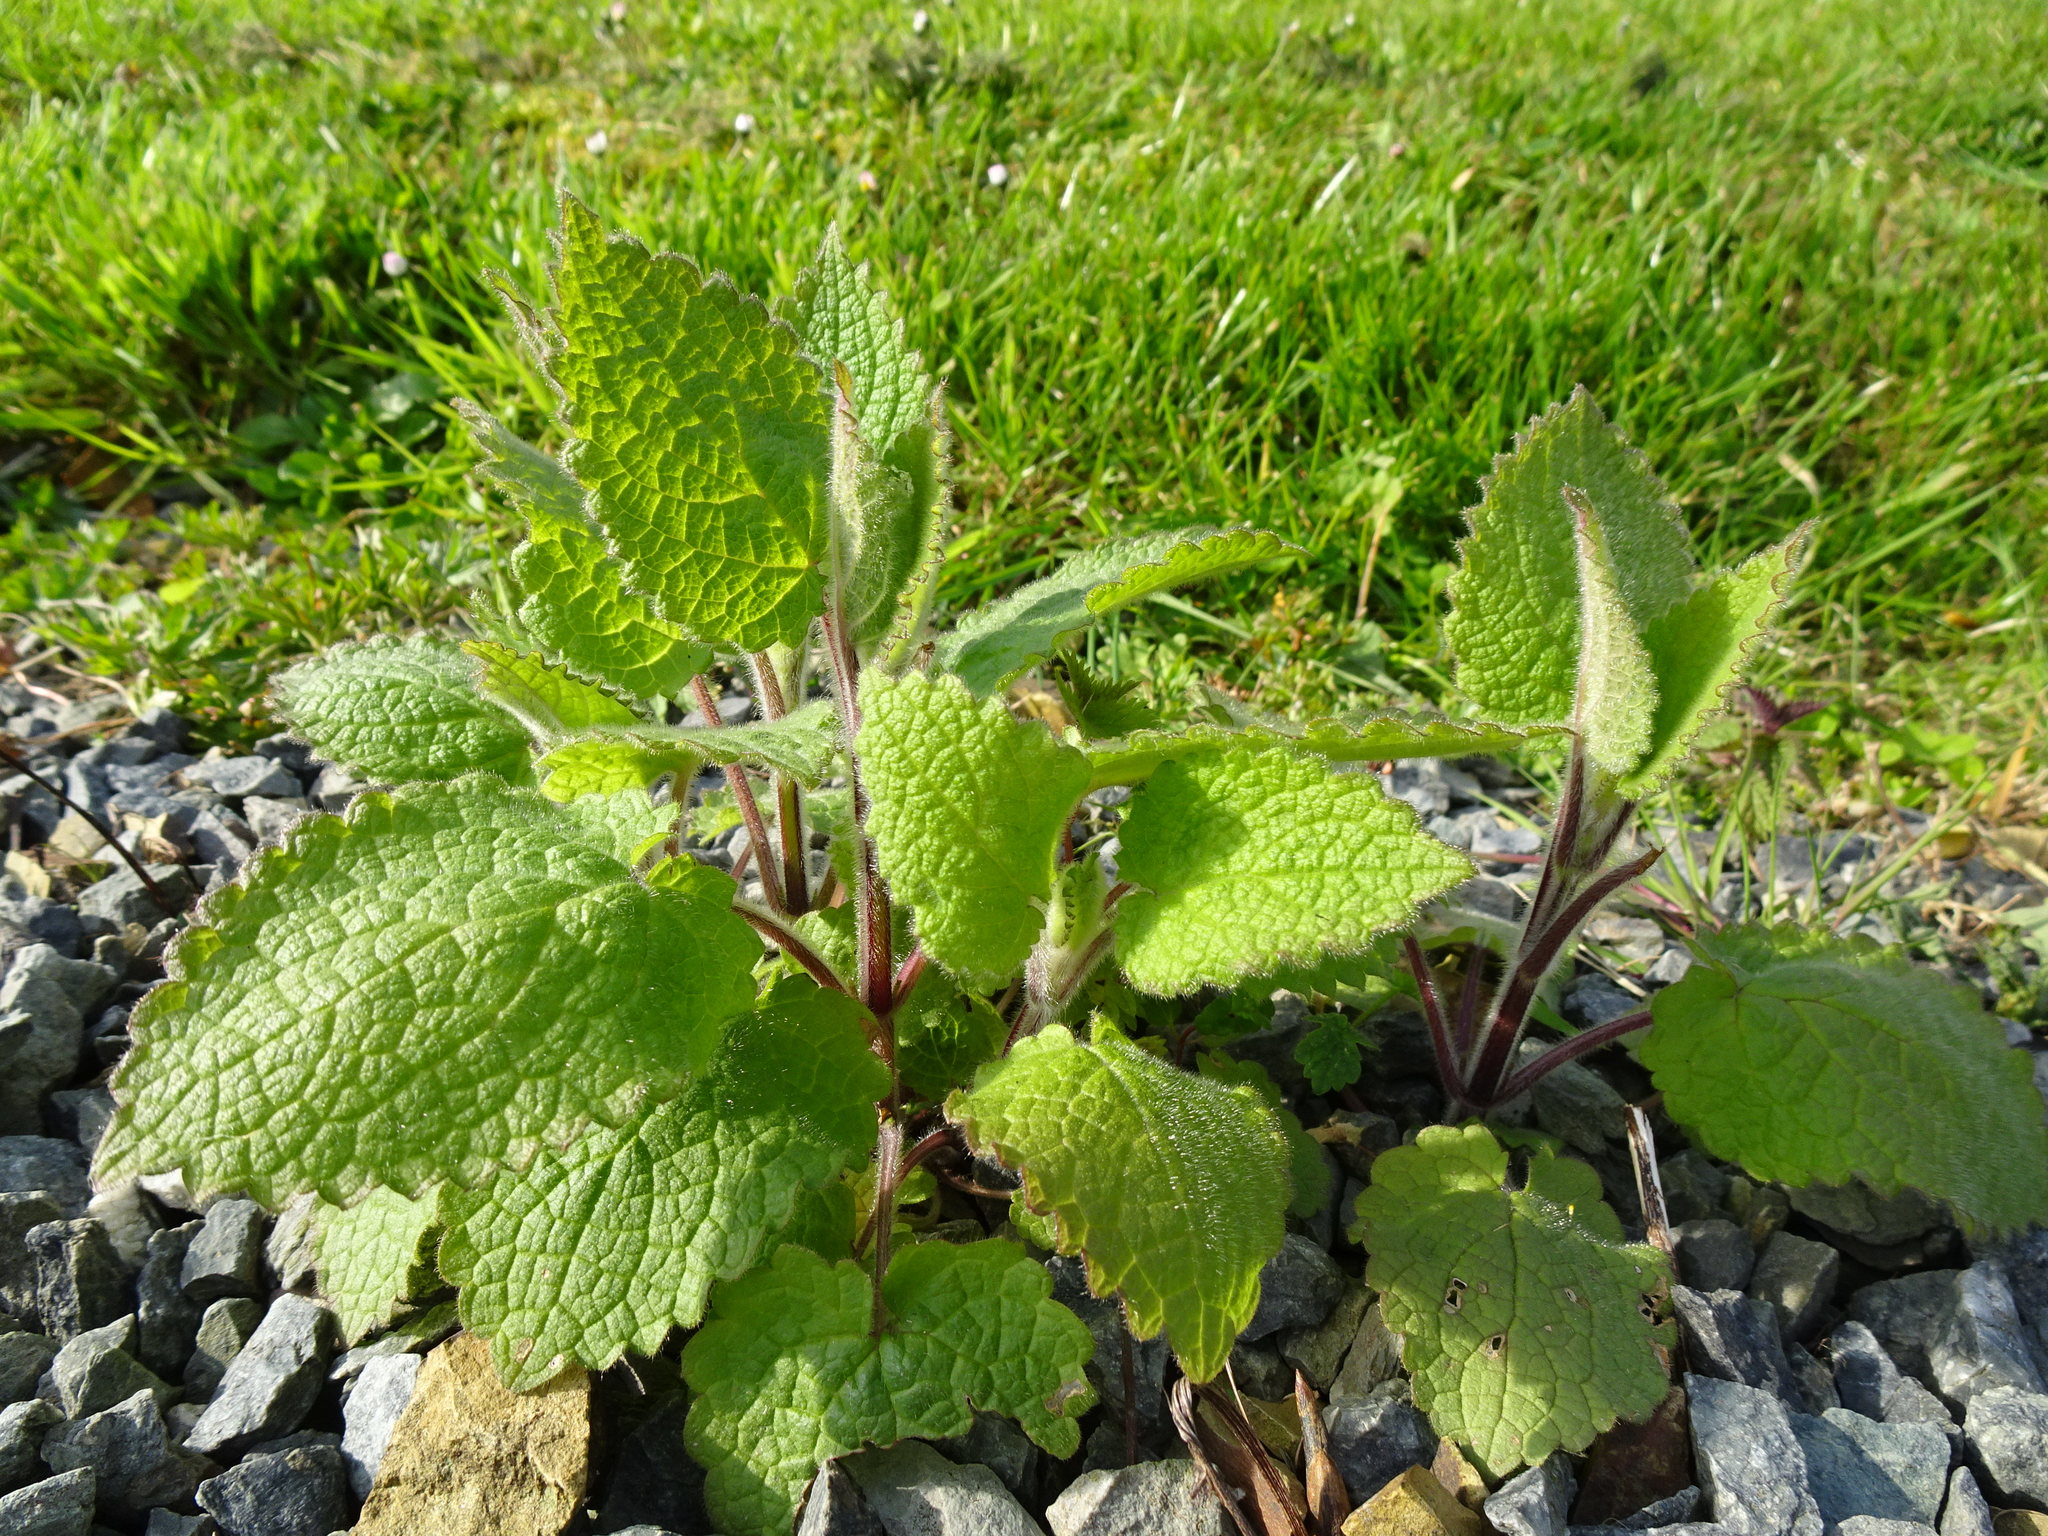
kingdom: Plantae
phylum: Tracheophyta
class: Magnoliopsida
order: Lamiales
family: Lamiaceae
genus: Stachys
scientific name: Stachys sylvatica
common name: Hedge woundwort
